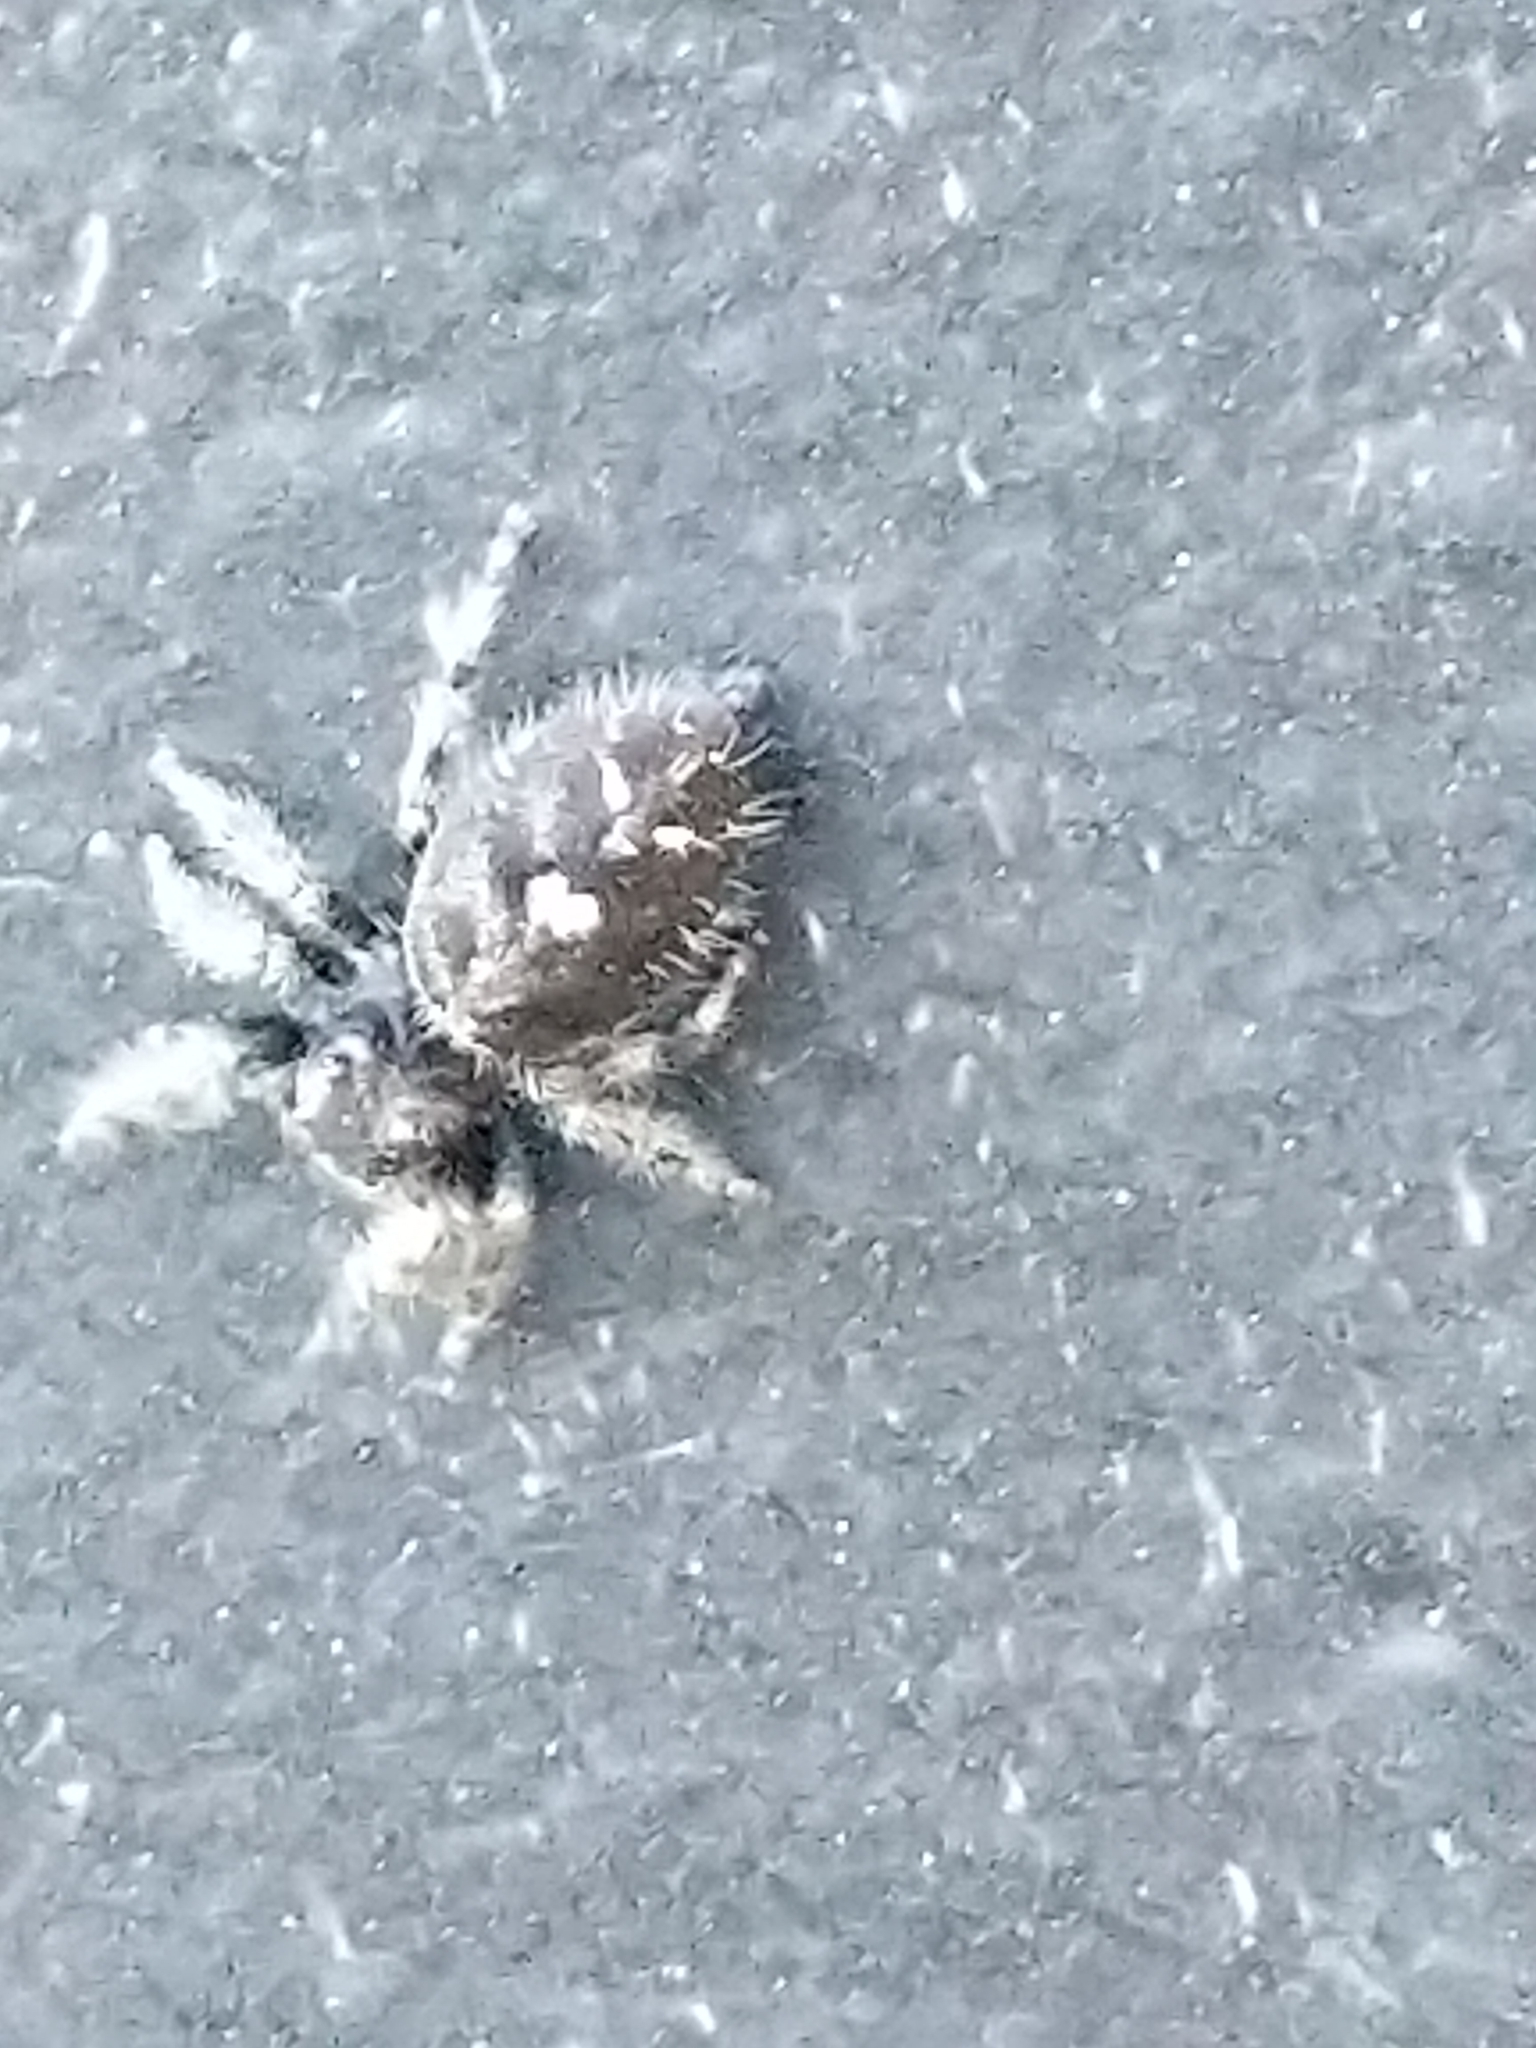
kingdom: Animalia
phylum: Arthropoda
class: Arachnida
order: Araneae
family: Salticidae
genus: Phidippus
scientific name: Phidippus audax
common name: Bold jumper
